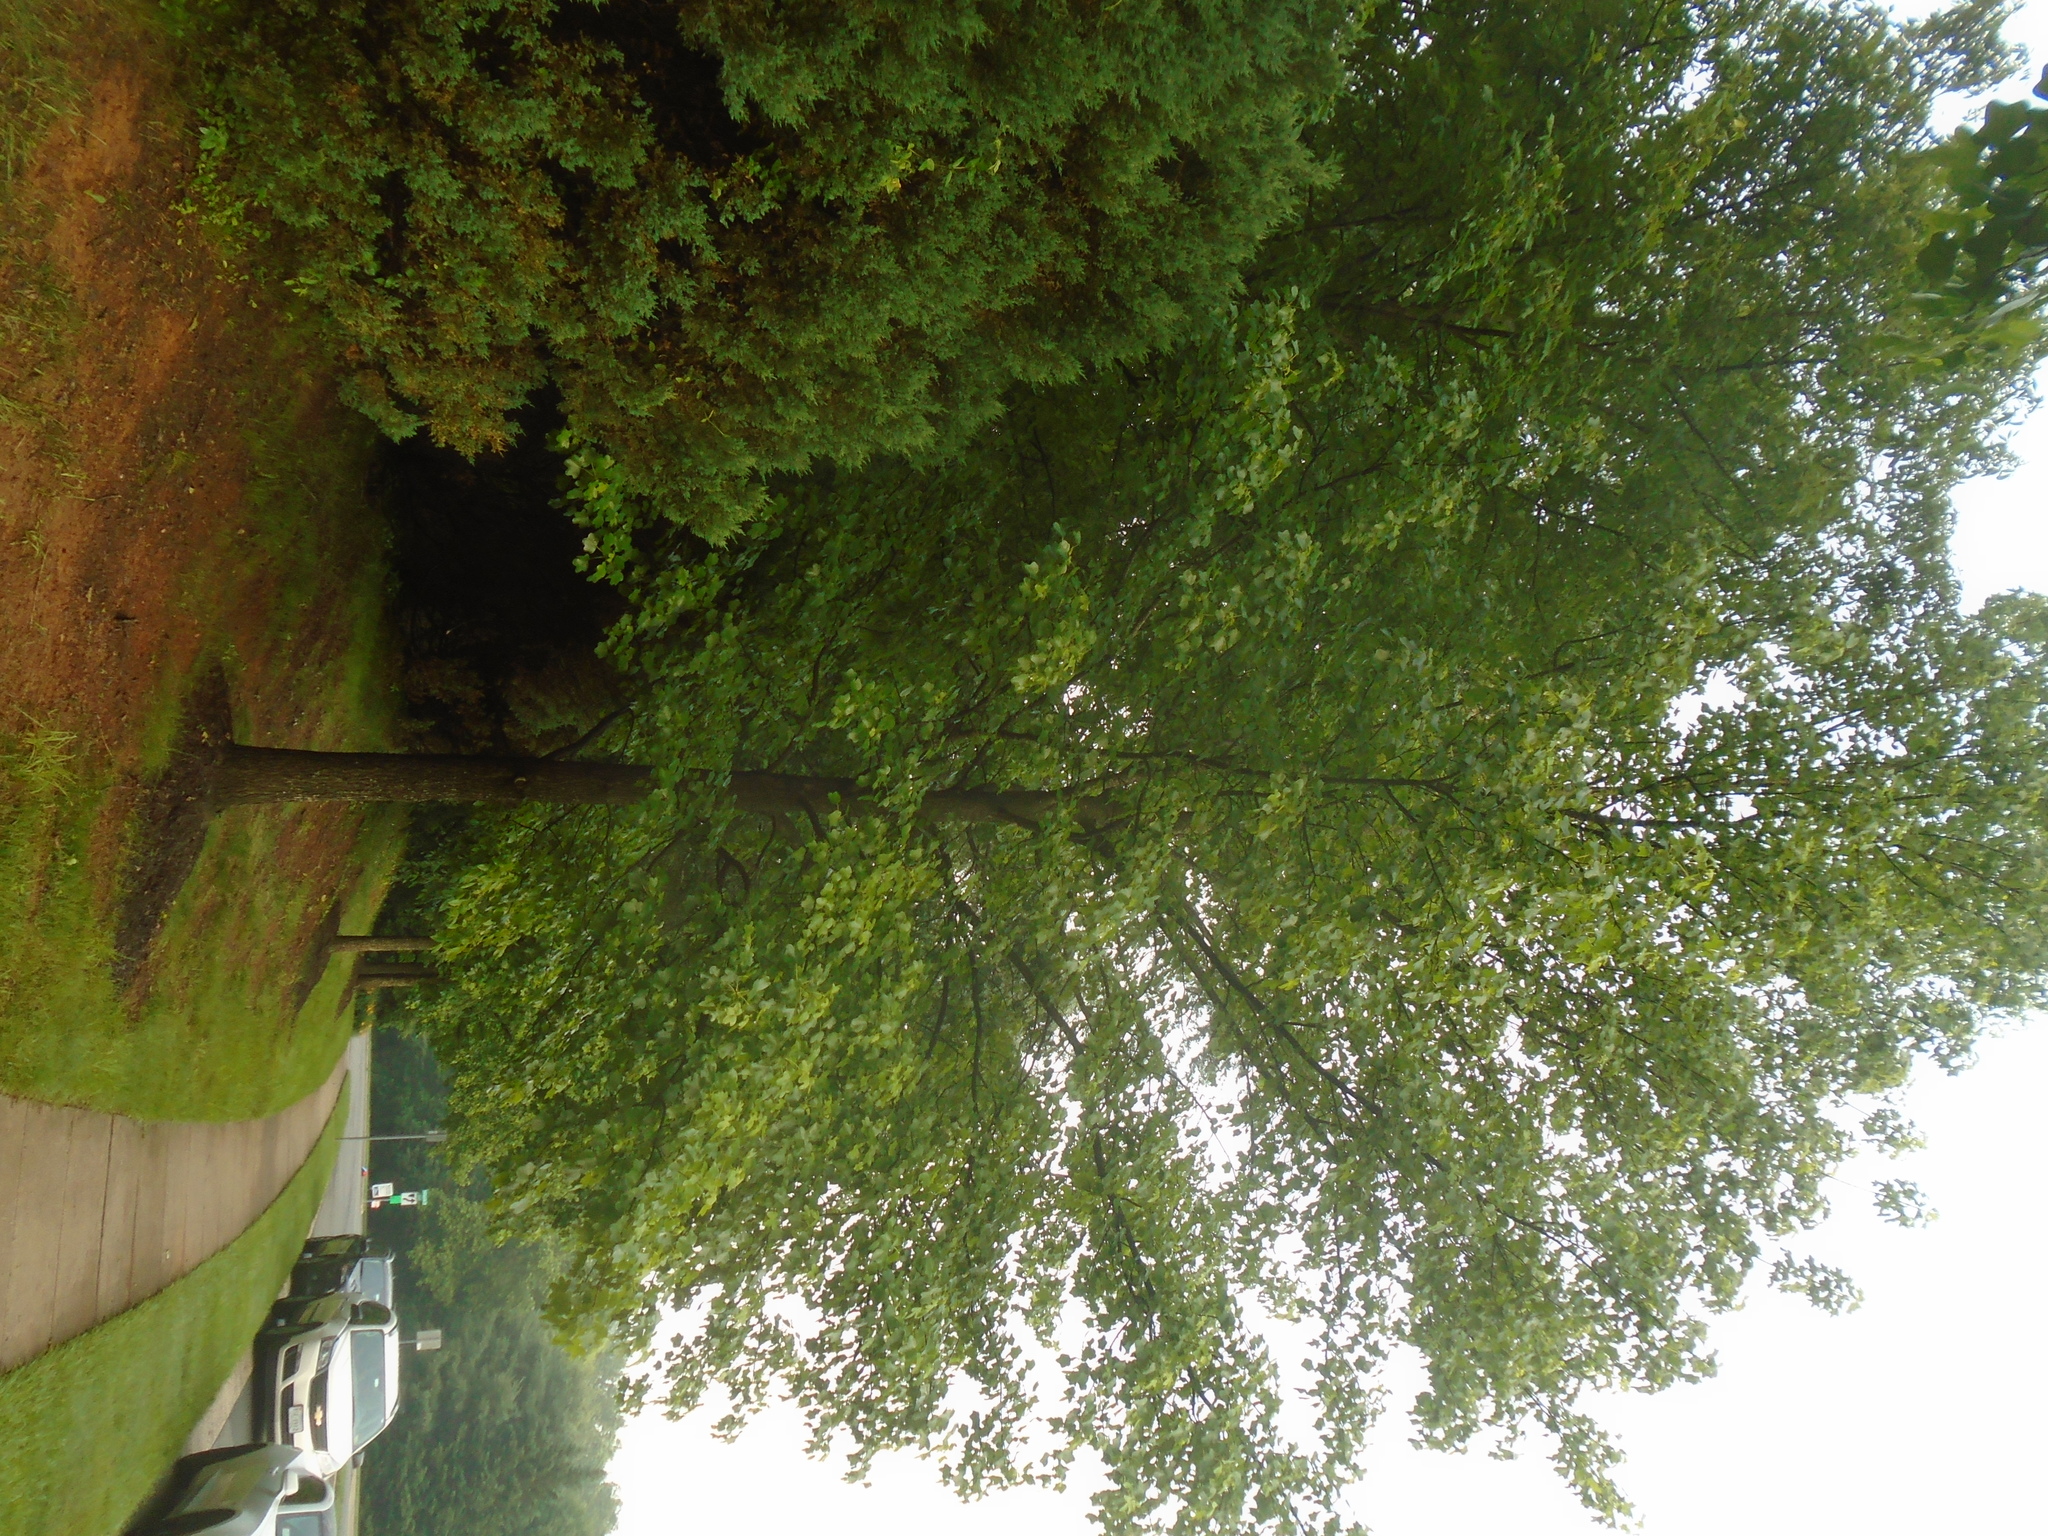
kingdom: Plantae
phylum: Tracheophyta
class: Magnoliopsida
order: Saxifragales
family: Altingiaceae
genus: Liquidambar
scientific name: Liquidambar styraciflua
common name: Sweet gum
